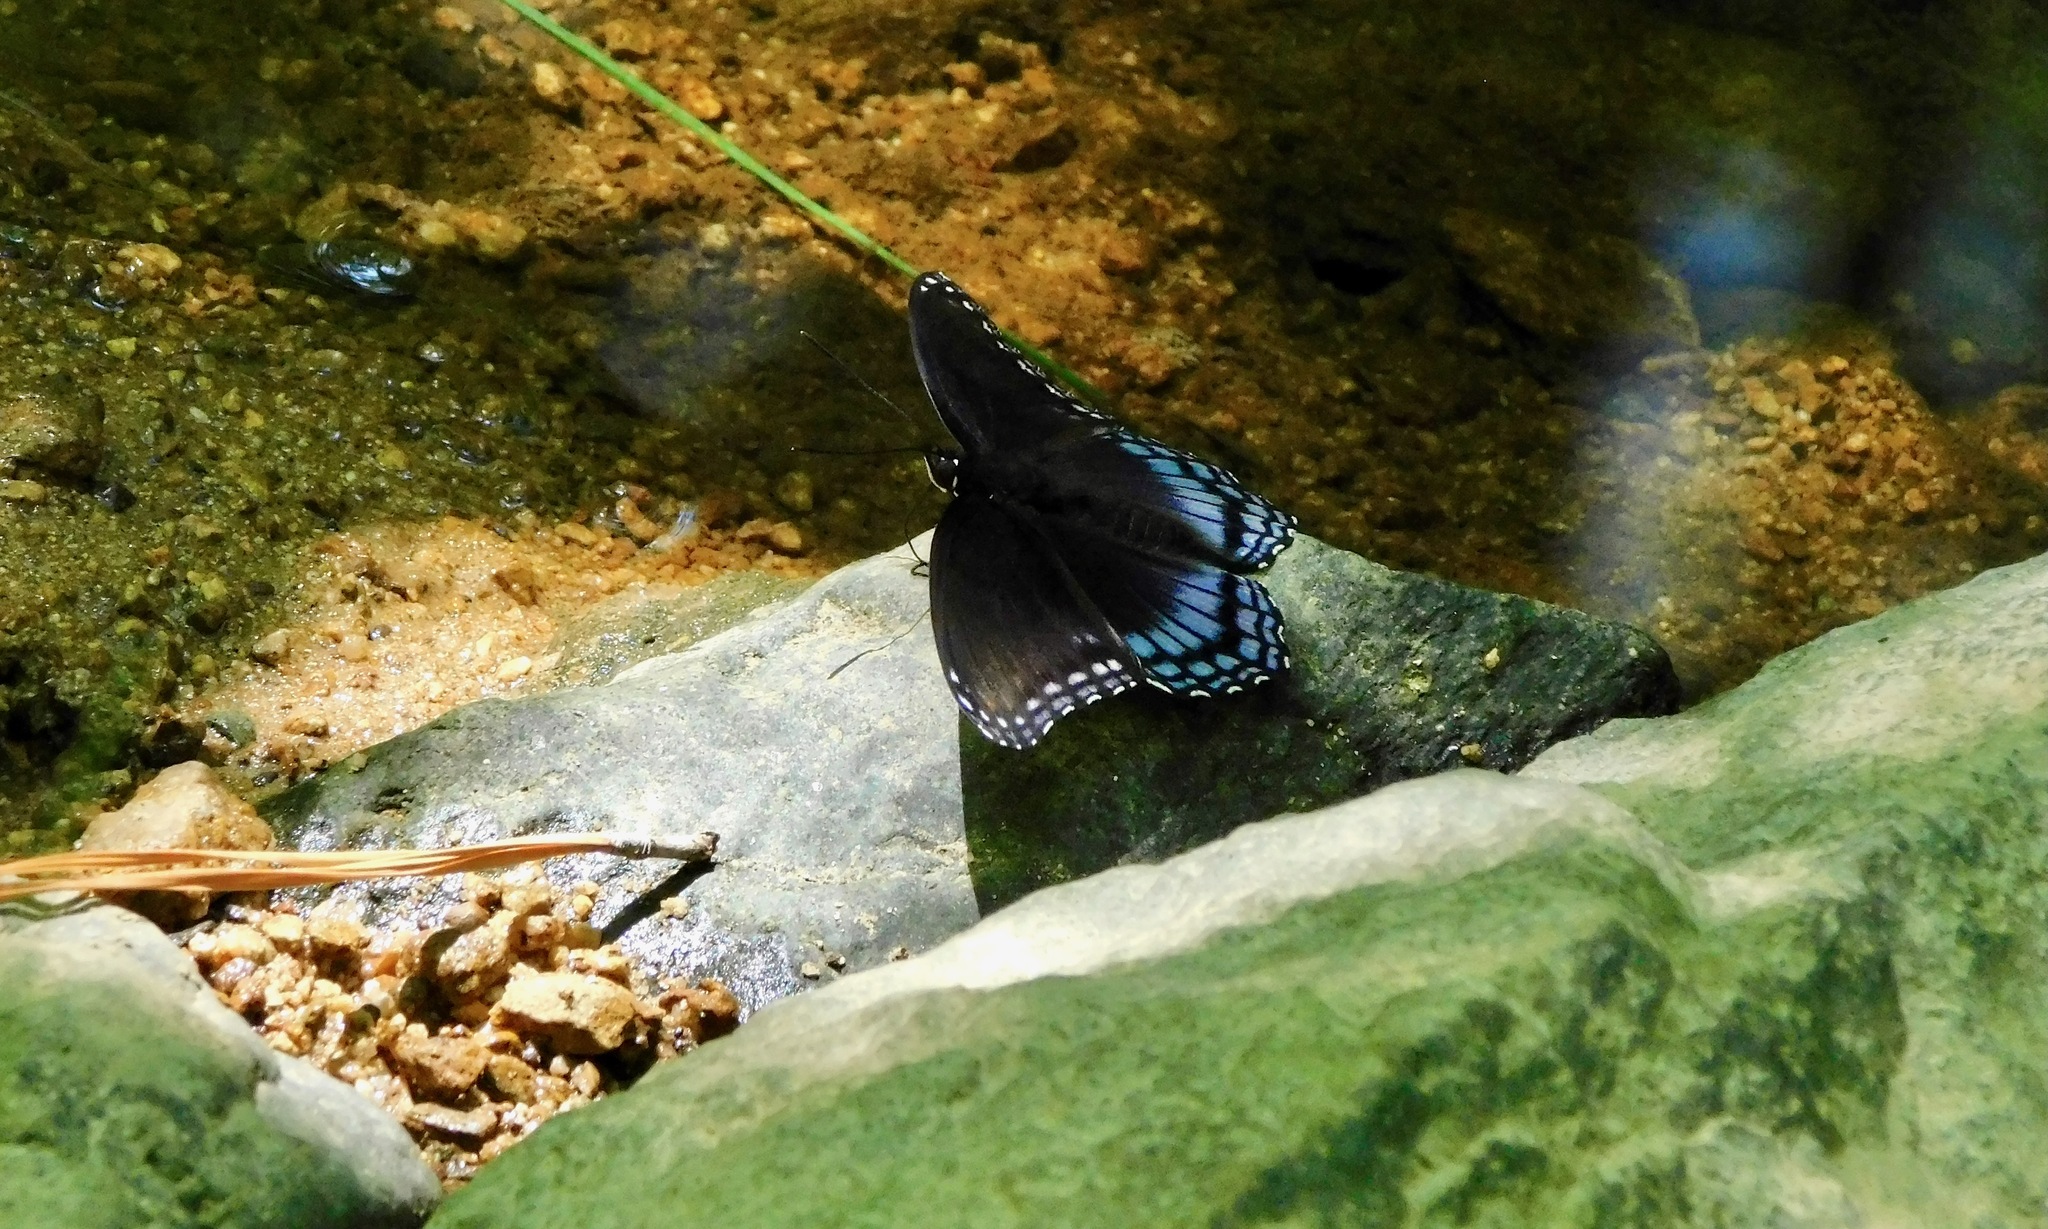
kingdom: Animalia
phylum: Arthropoda
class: Insecta
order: Lepidoptera
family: Nymphalidae
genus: Limenitis
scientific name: Limenitis astyanax
